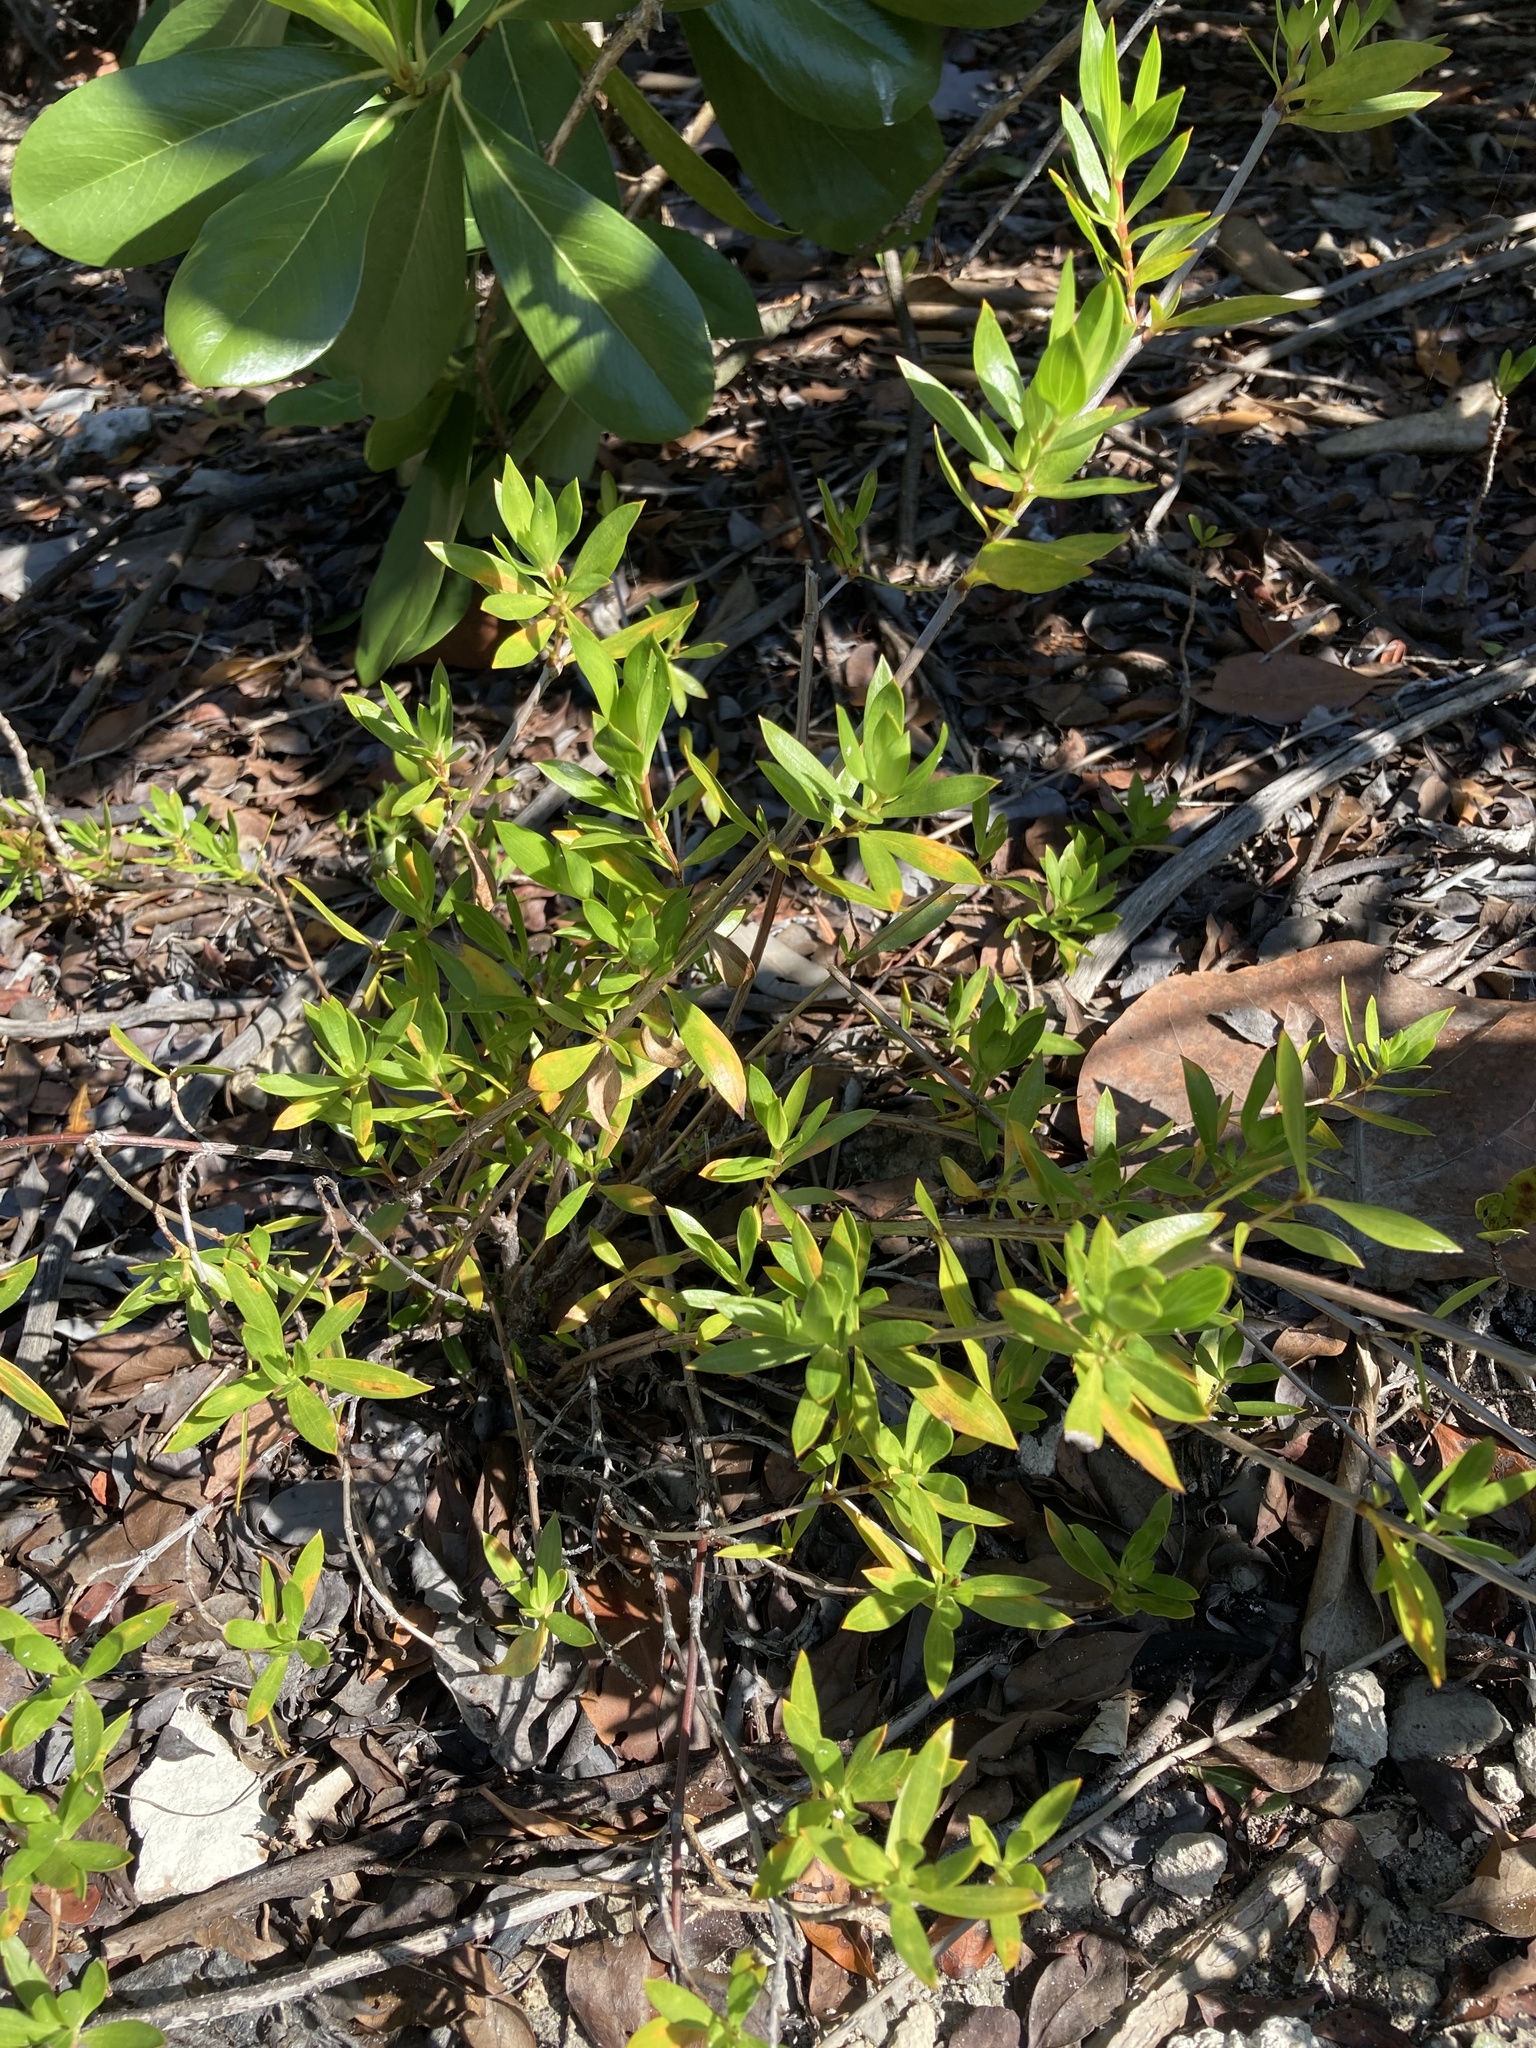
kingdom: Plantae
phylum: Tracheophyta
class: Magnoliopsida
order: Gentianales
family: Rubiaceae
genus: Ernodea
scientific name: Ernodea littoralis
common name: Beach creeper
